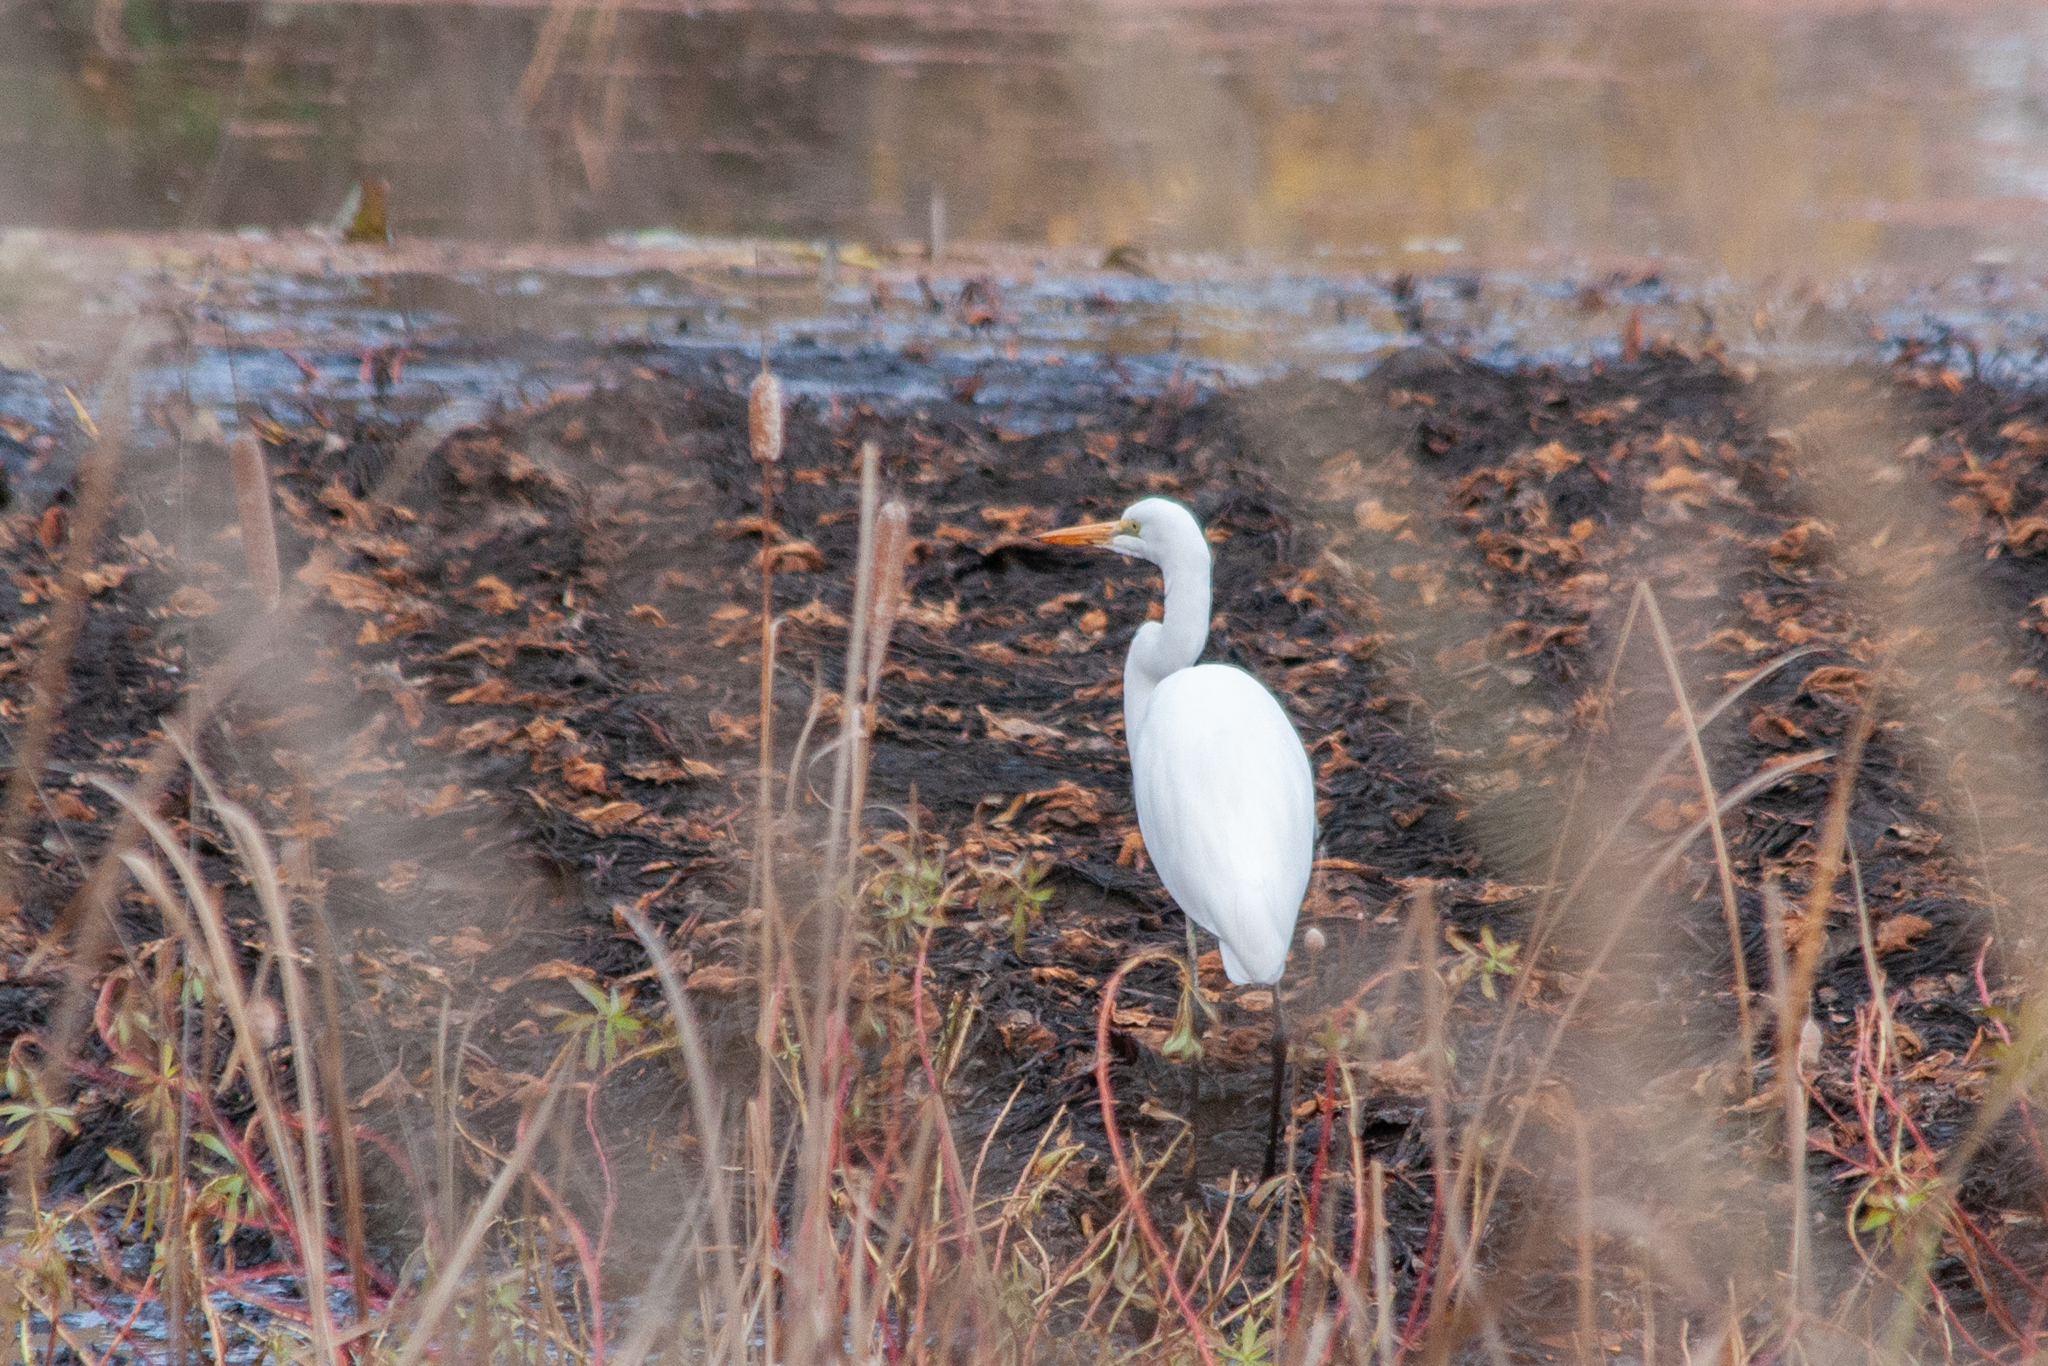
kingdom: Animalia
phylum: Chordata
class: Aves
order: Pelecaniformes
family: Ardeidae
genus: Ardea
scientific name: Ardea alba
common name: Great egret
